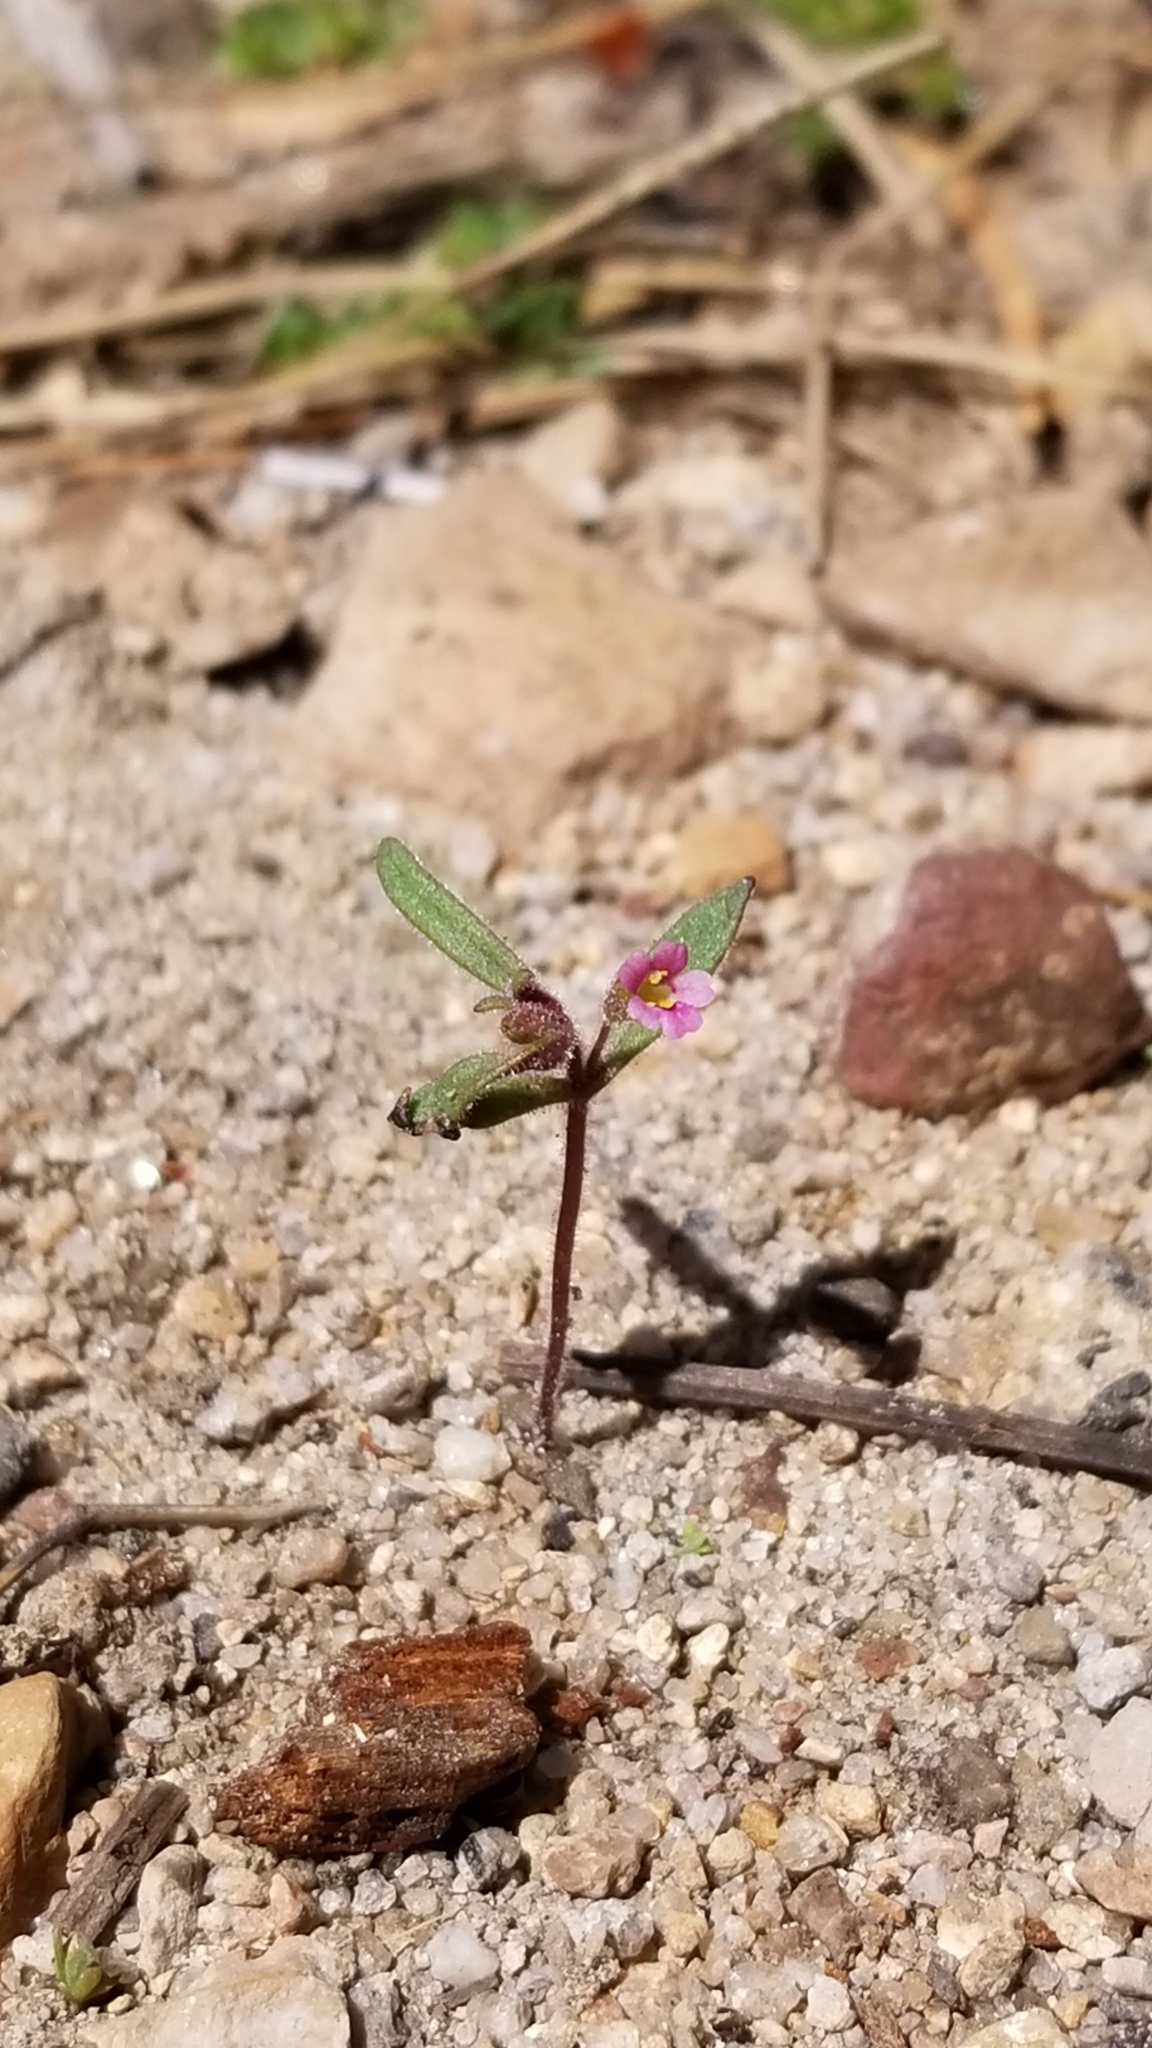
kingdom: Plantae
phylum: Tracheophyta
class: Magnoliopsida
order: Lamiales
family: Phrymaceae
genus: Erythranthe
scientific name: Erythranthe breweri
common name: Brewer's monkeyflower
